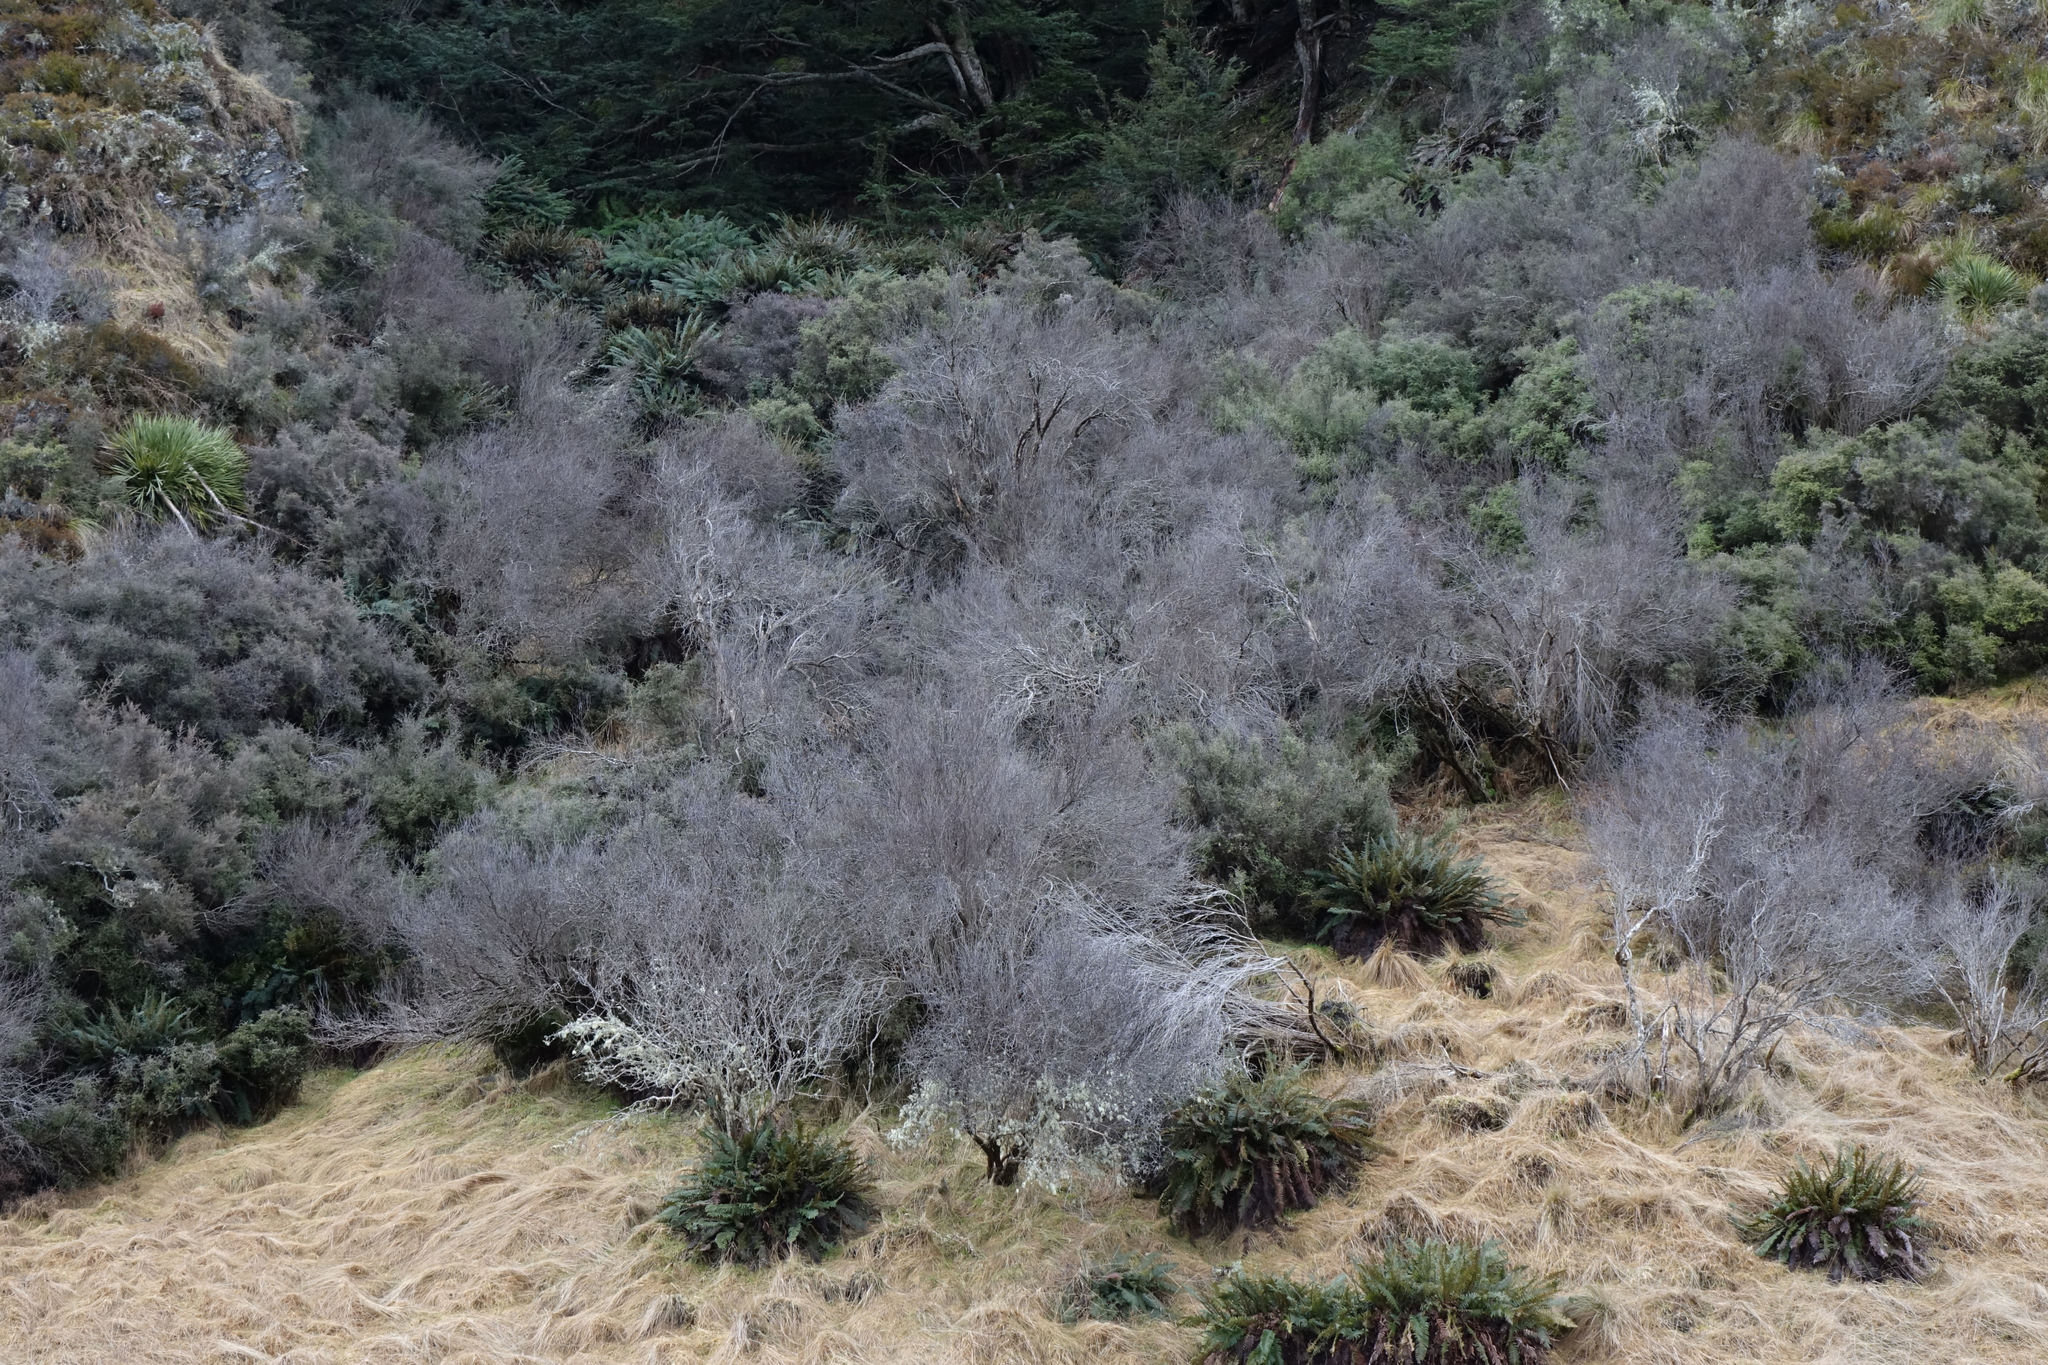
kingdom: Plantae
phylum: Tracheophyta
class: Magnoliopsida
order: Asterales
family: Asteraceae
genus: Olearia
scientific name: Olearia odorata
